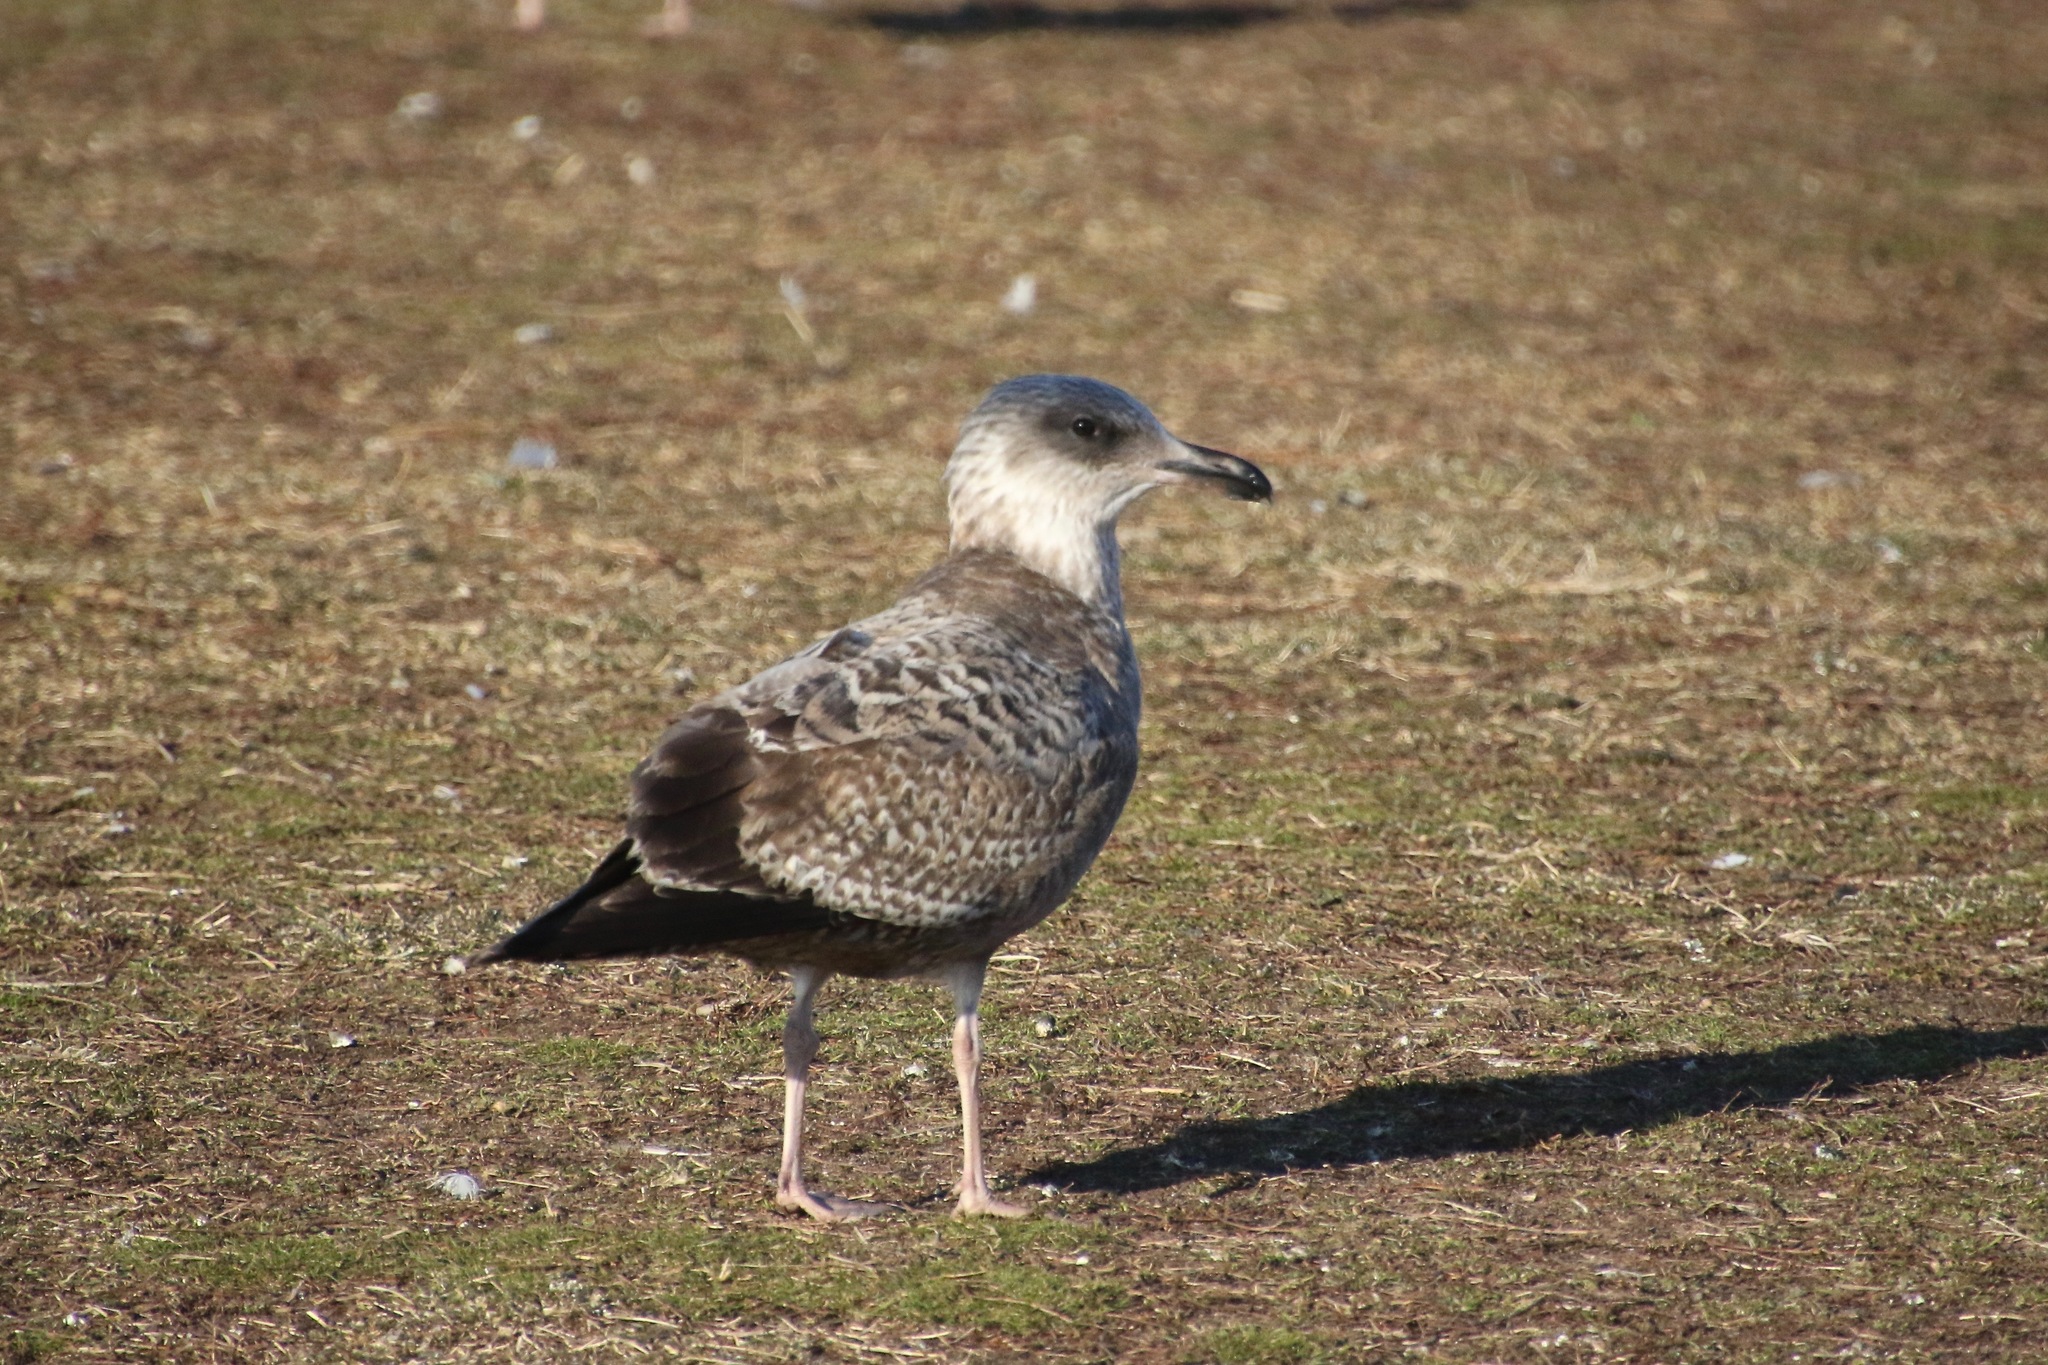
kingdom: Animalia
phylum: Chordata
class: Aves
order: Charadriiformes
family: Laridae
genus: Larus
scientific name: Larus argentatus
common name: Herring gull
